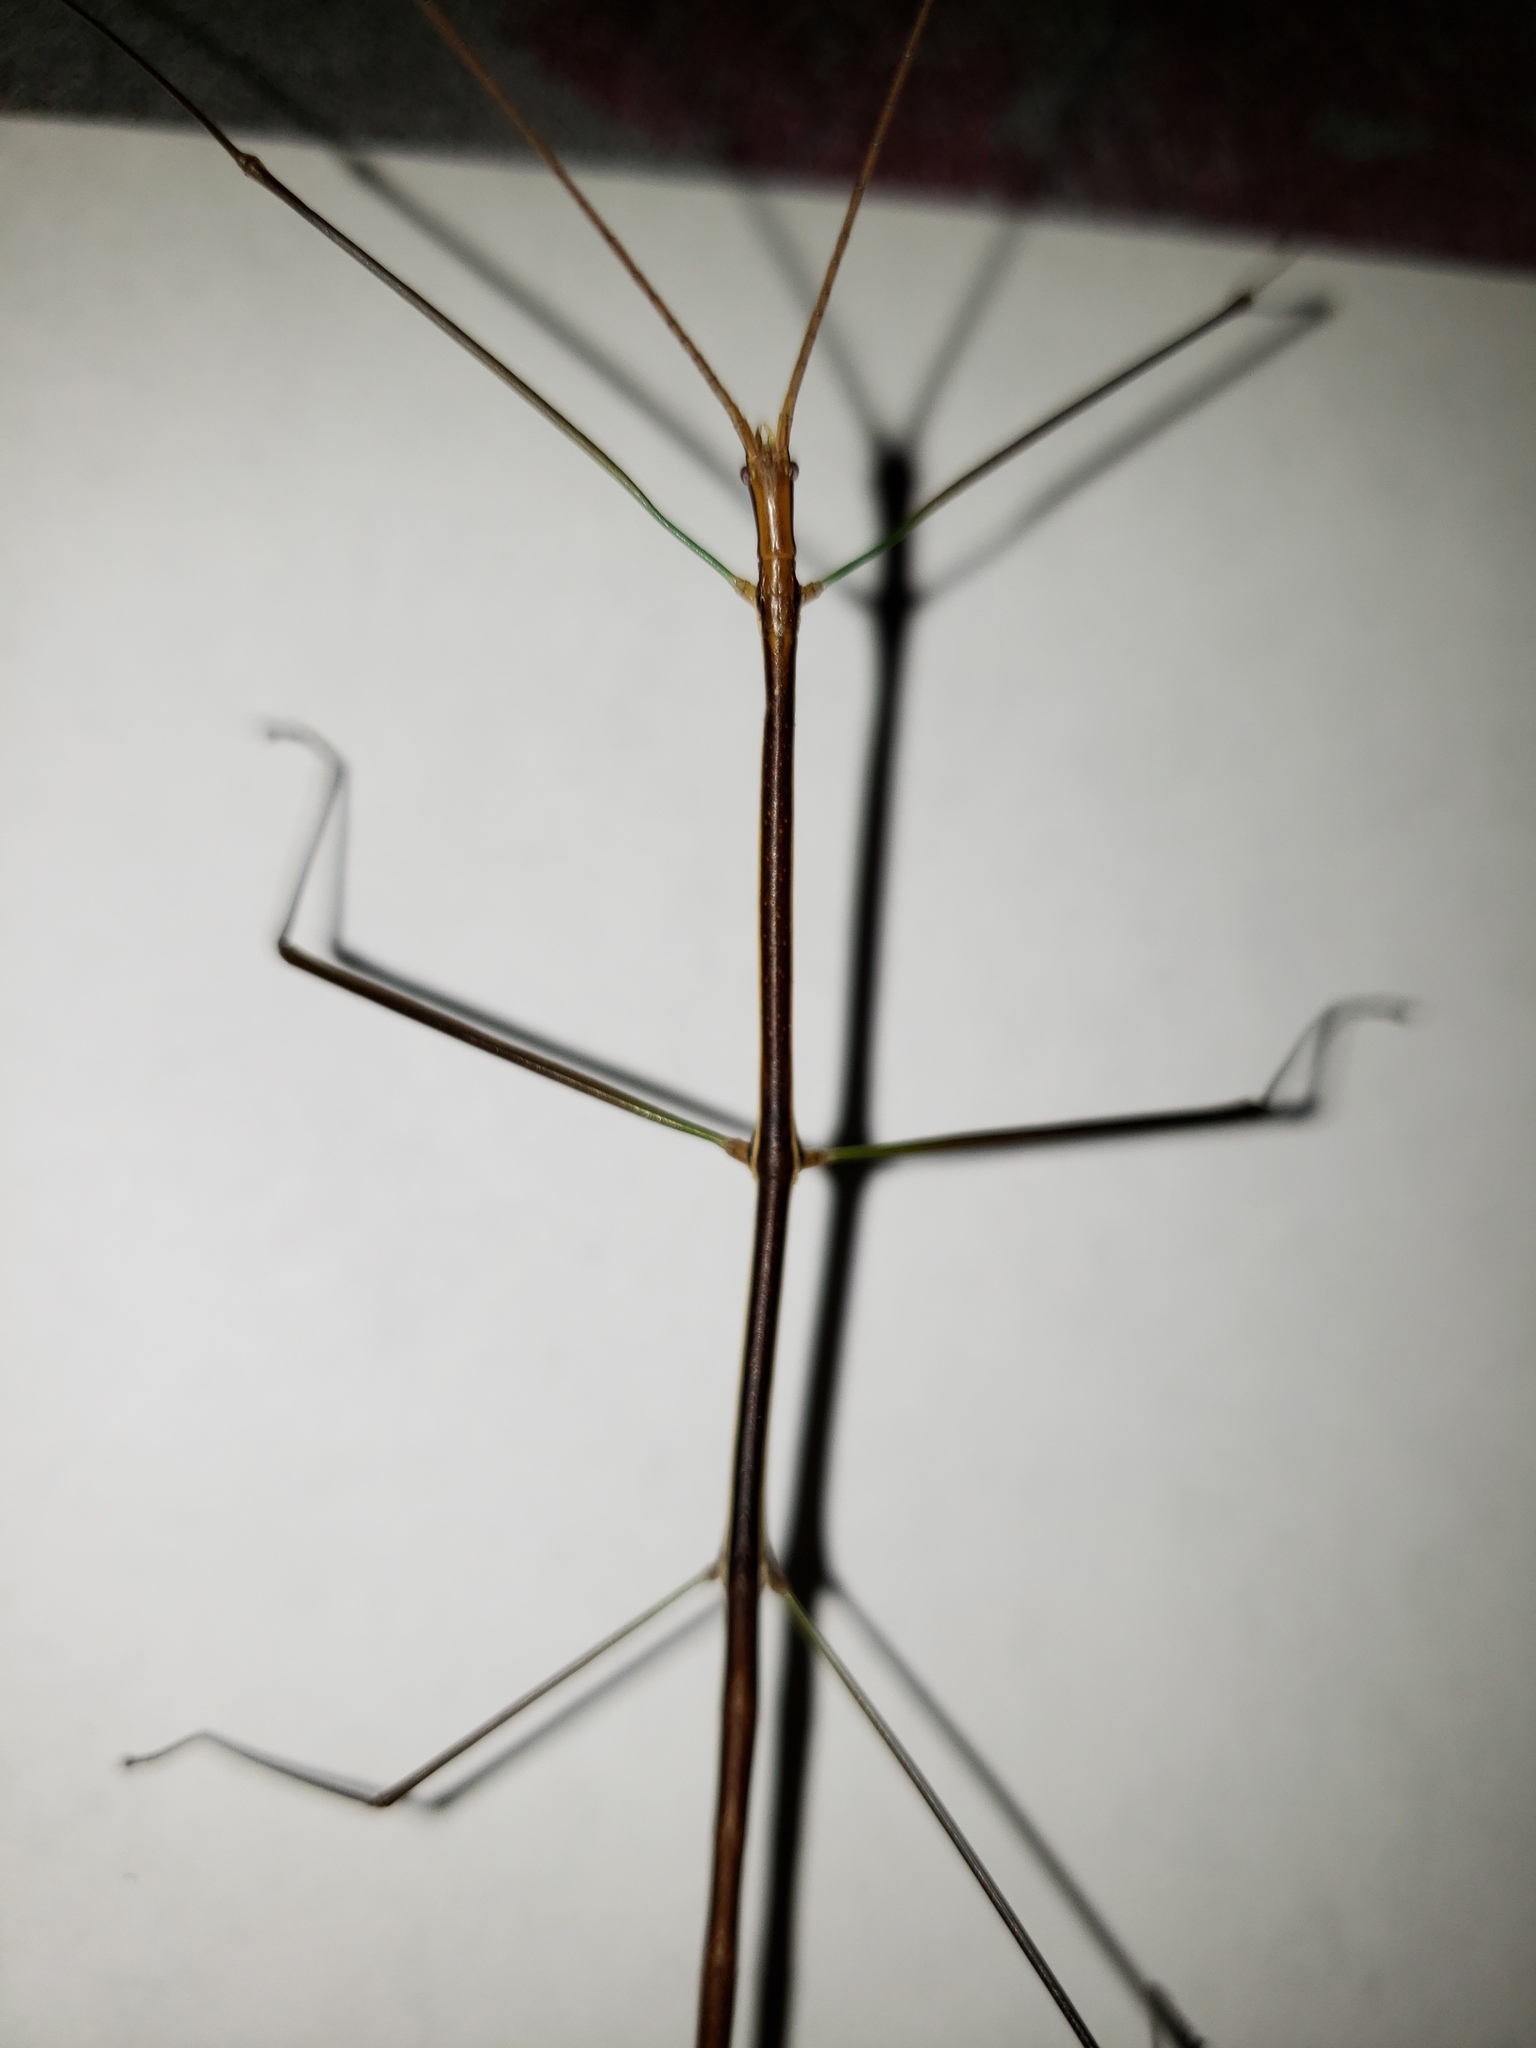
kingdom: Animalia
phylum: Arthropoda
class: Insecta
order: Phasmida
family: Diapheromeridae
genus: Manomera
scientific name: Manomera tenuescens
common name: Slender-bodied walkingstick
